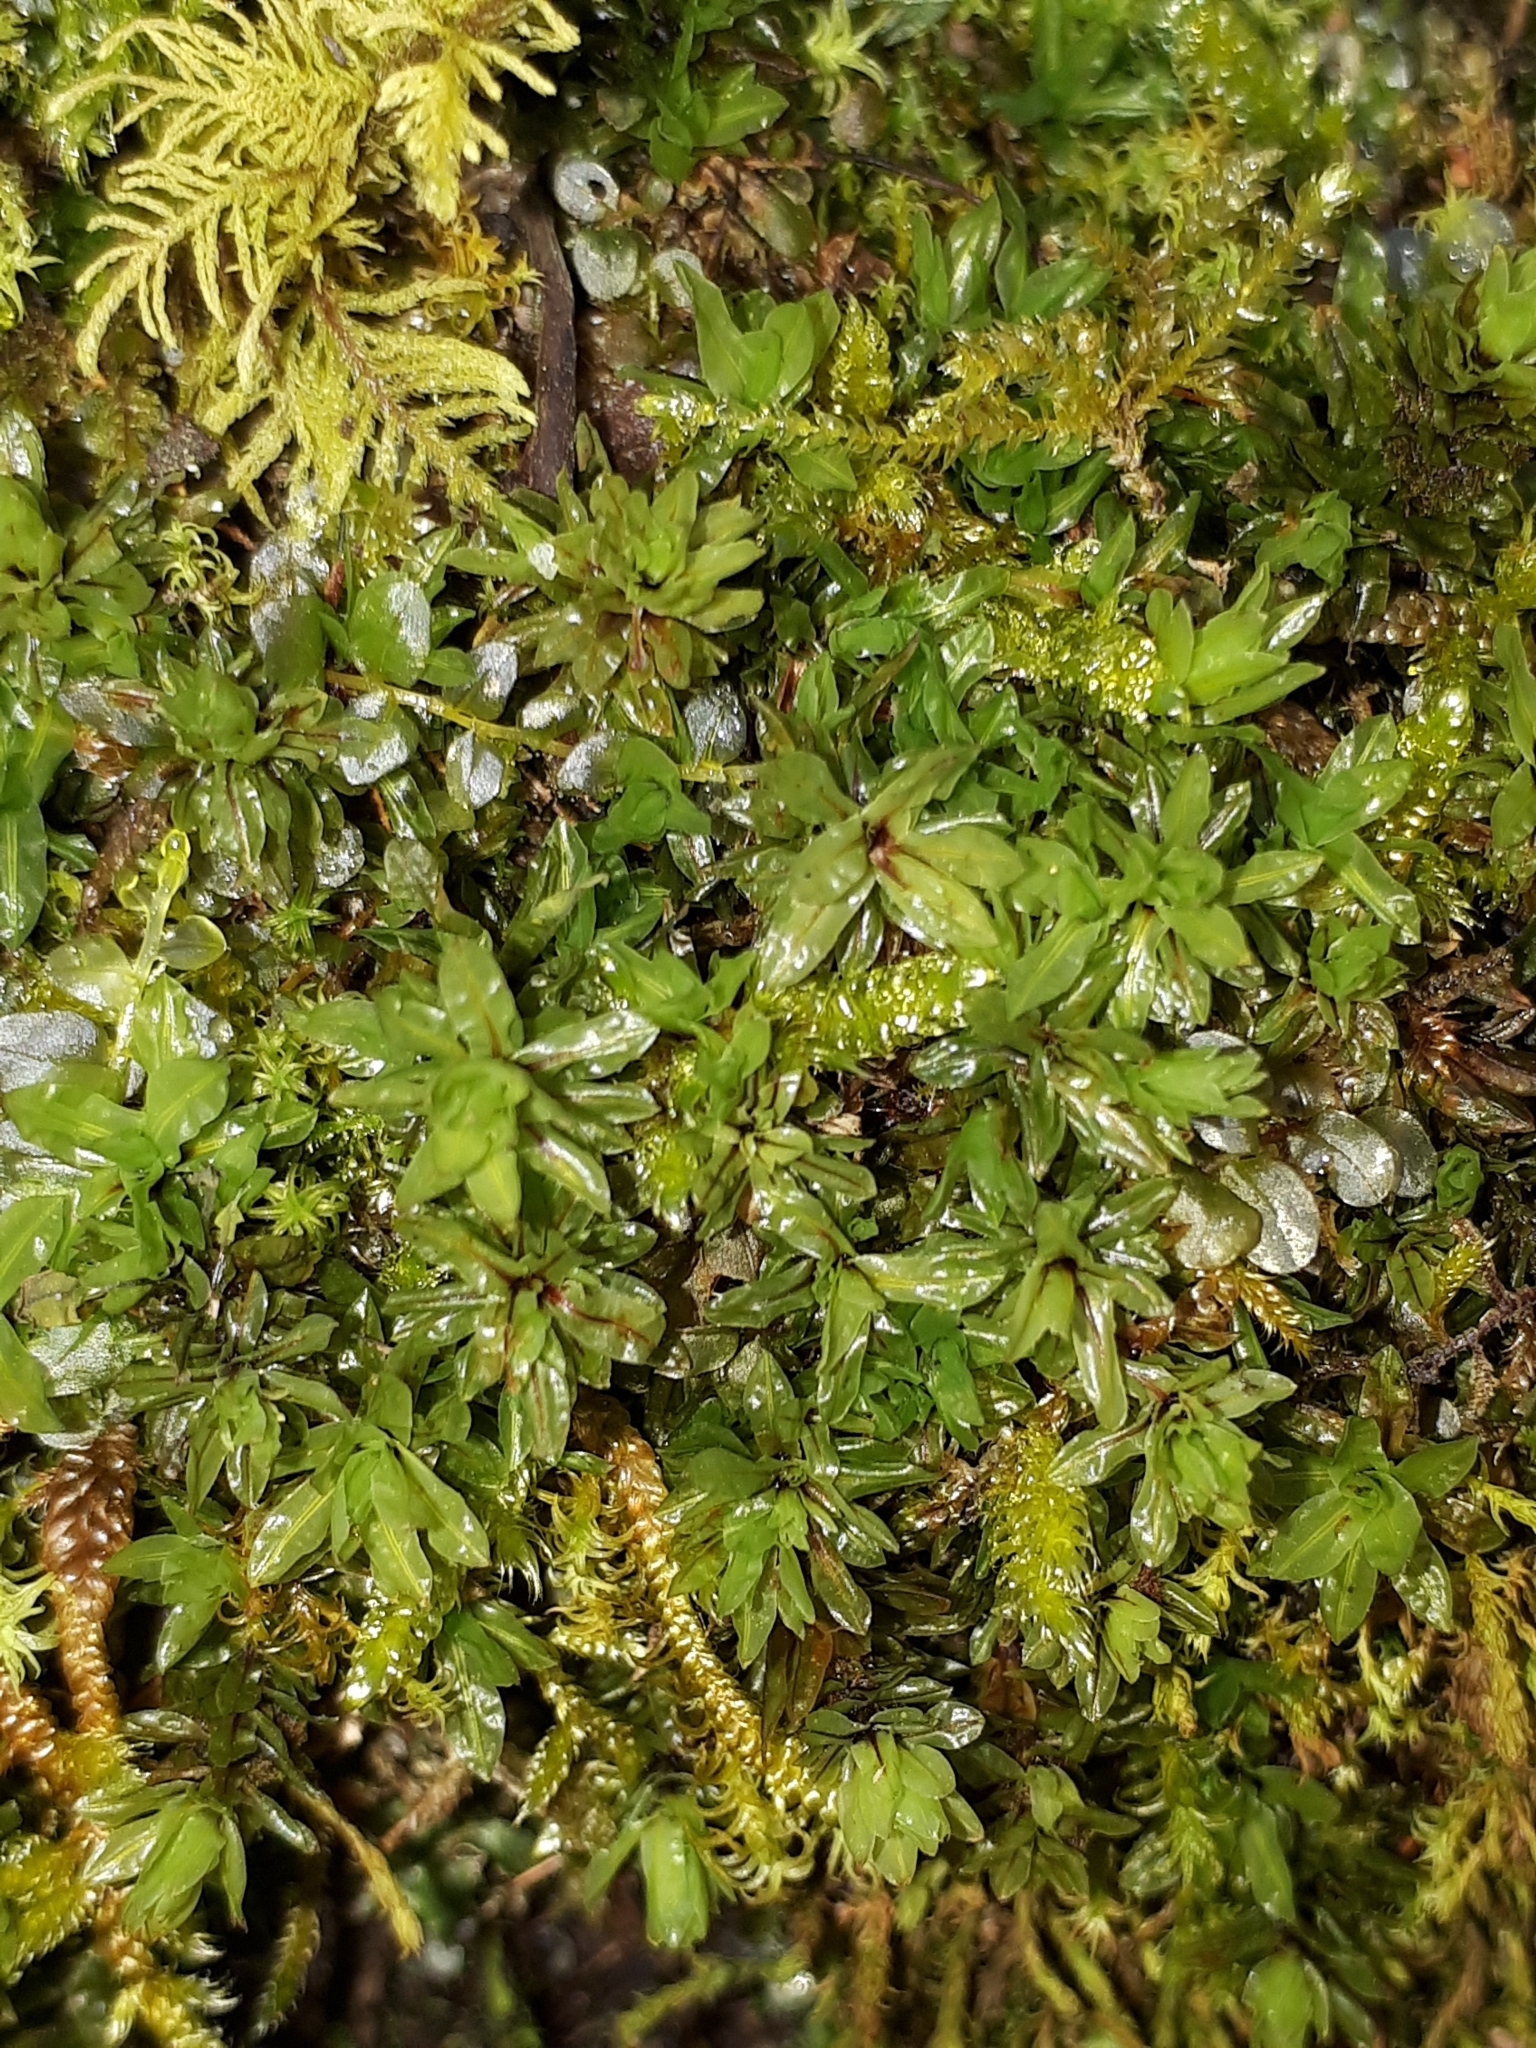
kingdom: Plantae
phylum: Bryophyta
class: Bryopsida
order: Encalyptales
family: Encalyptaceae
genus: Encalypta
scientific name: Encalypta streptocarpa
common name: Spiral extinguisher-moss
